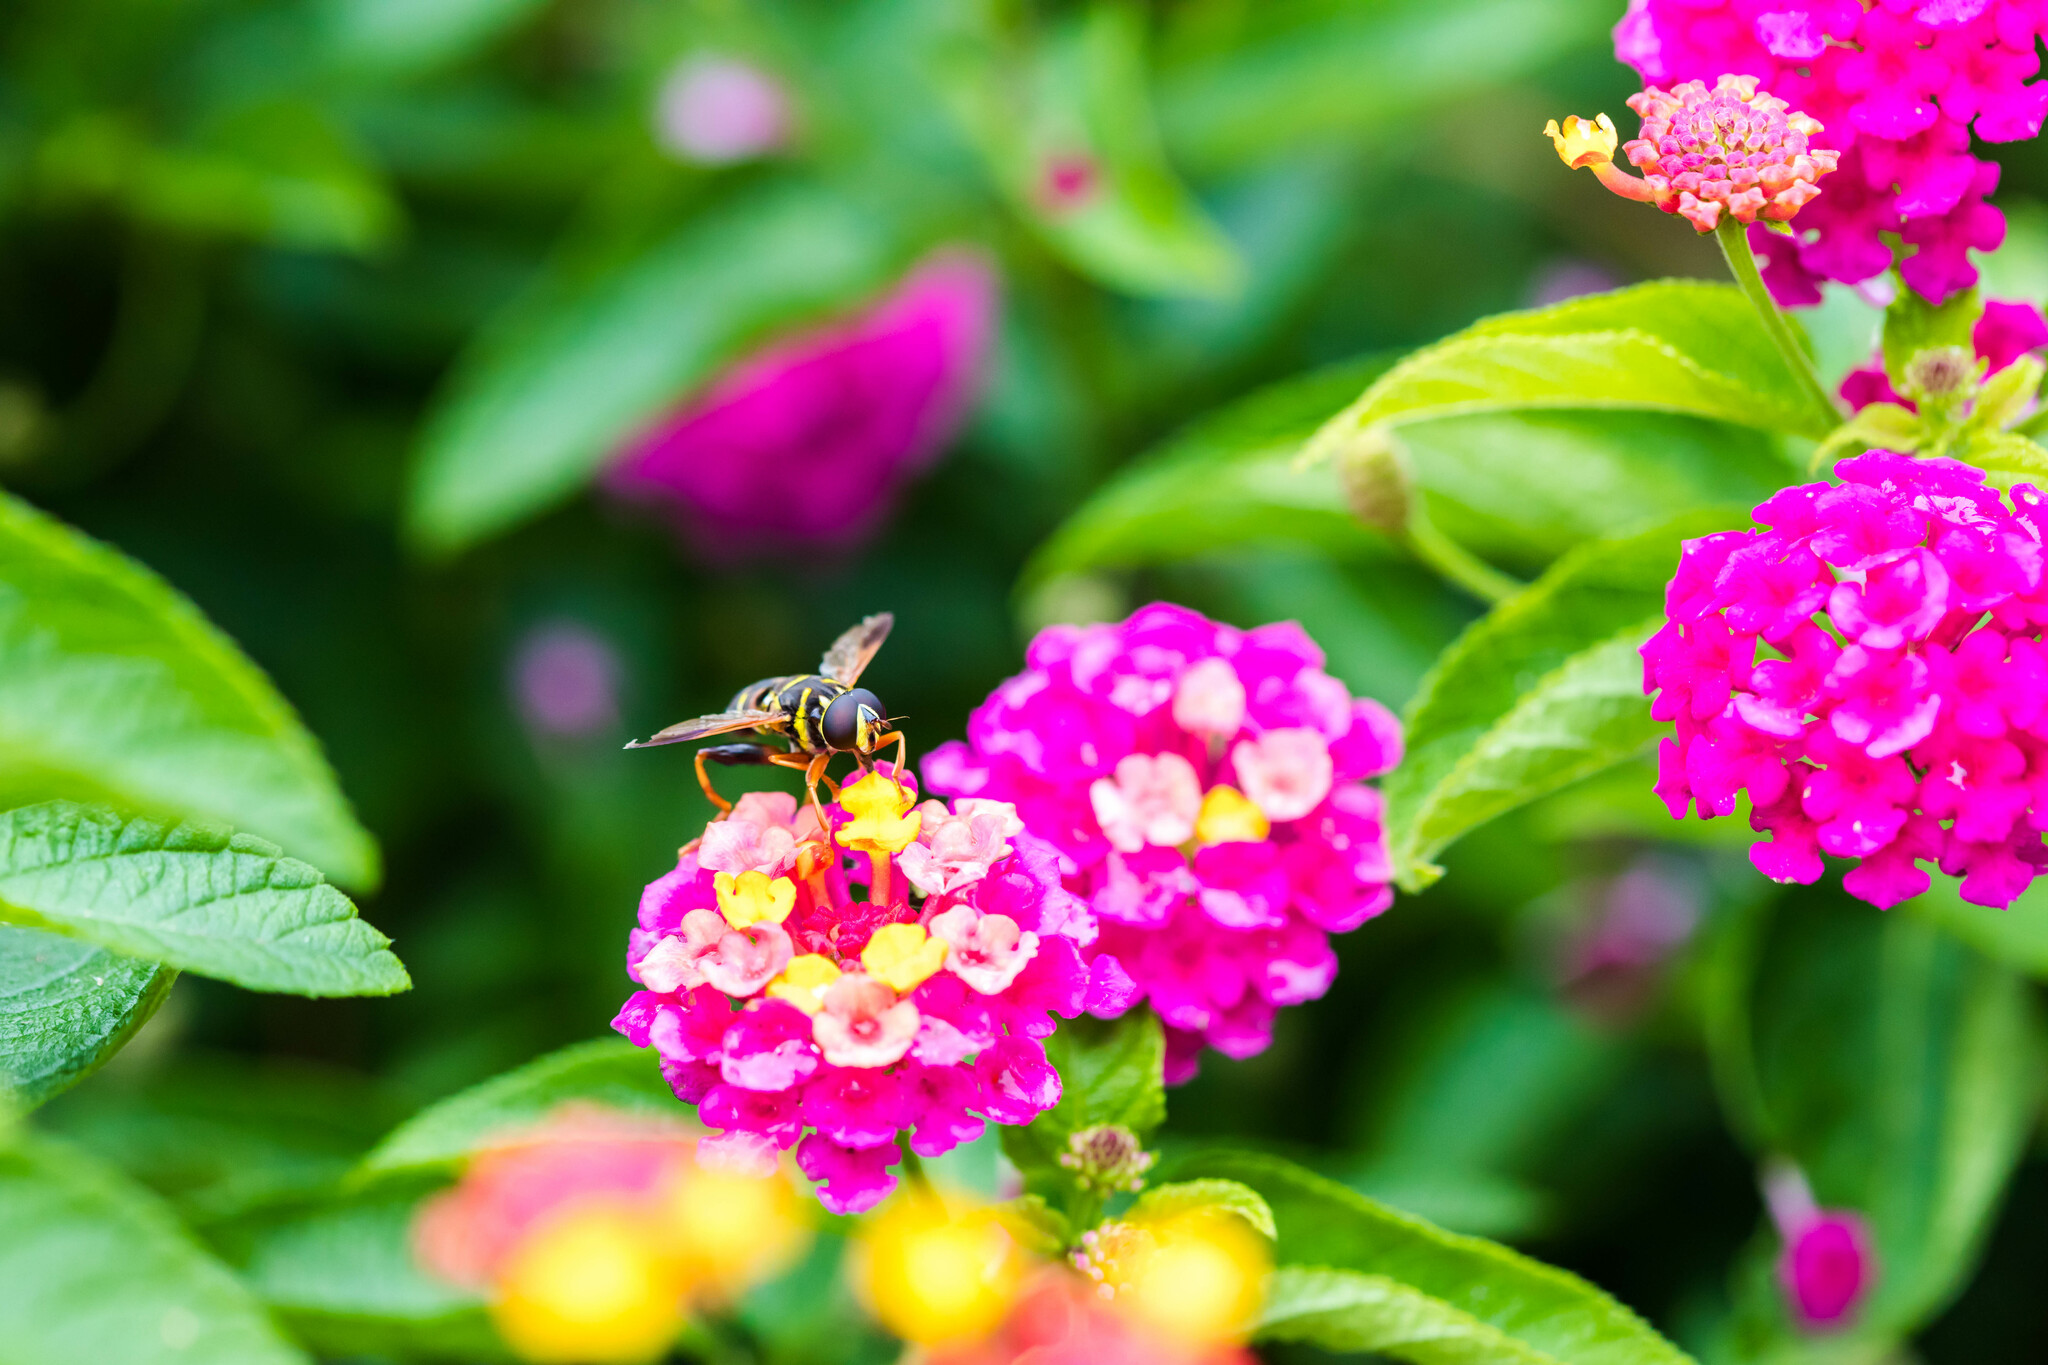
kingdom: Animalia
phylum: Arthropoda
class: Insecta
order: Diptera
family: Syrphidae
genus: Meromacrus
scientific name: Meromacrus acutus
